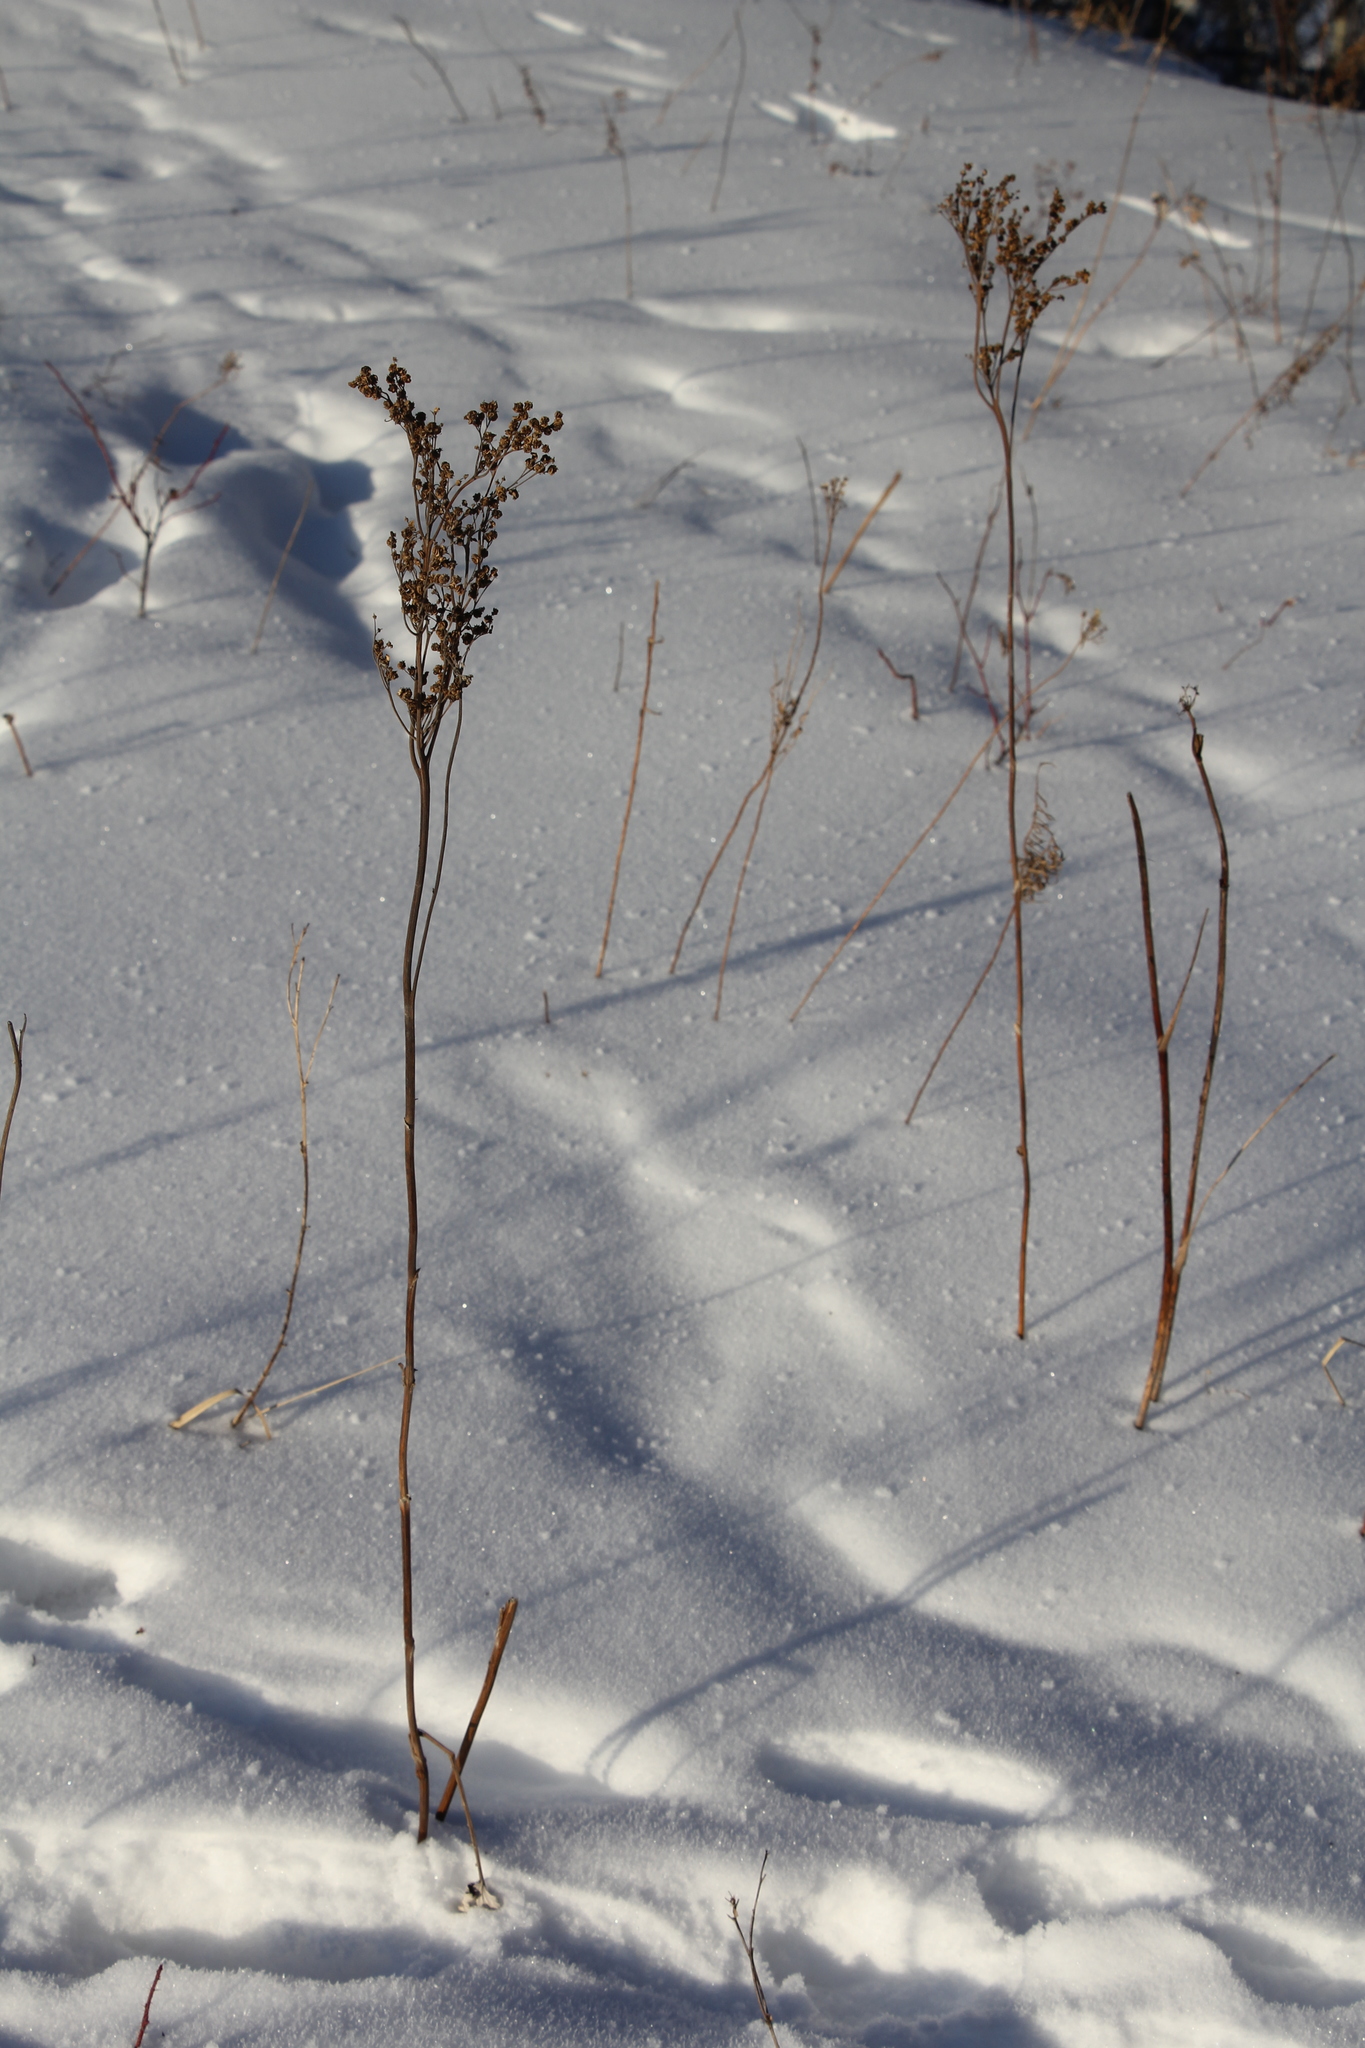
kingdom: Plantae
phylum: Tracheophyta
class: Magnoliopsida
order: Rosales
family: Rosaceae
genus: Filipendula
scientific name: Filipendula vulgaris
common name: Dropwort
